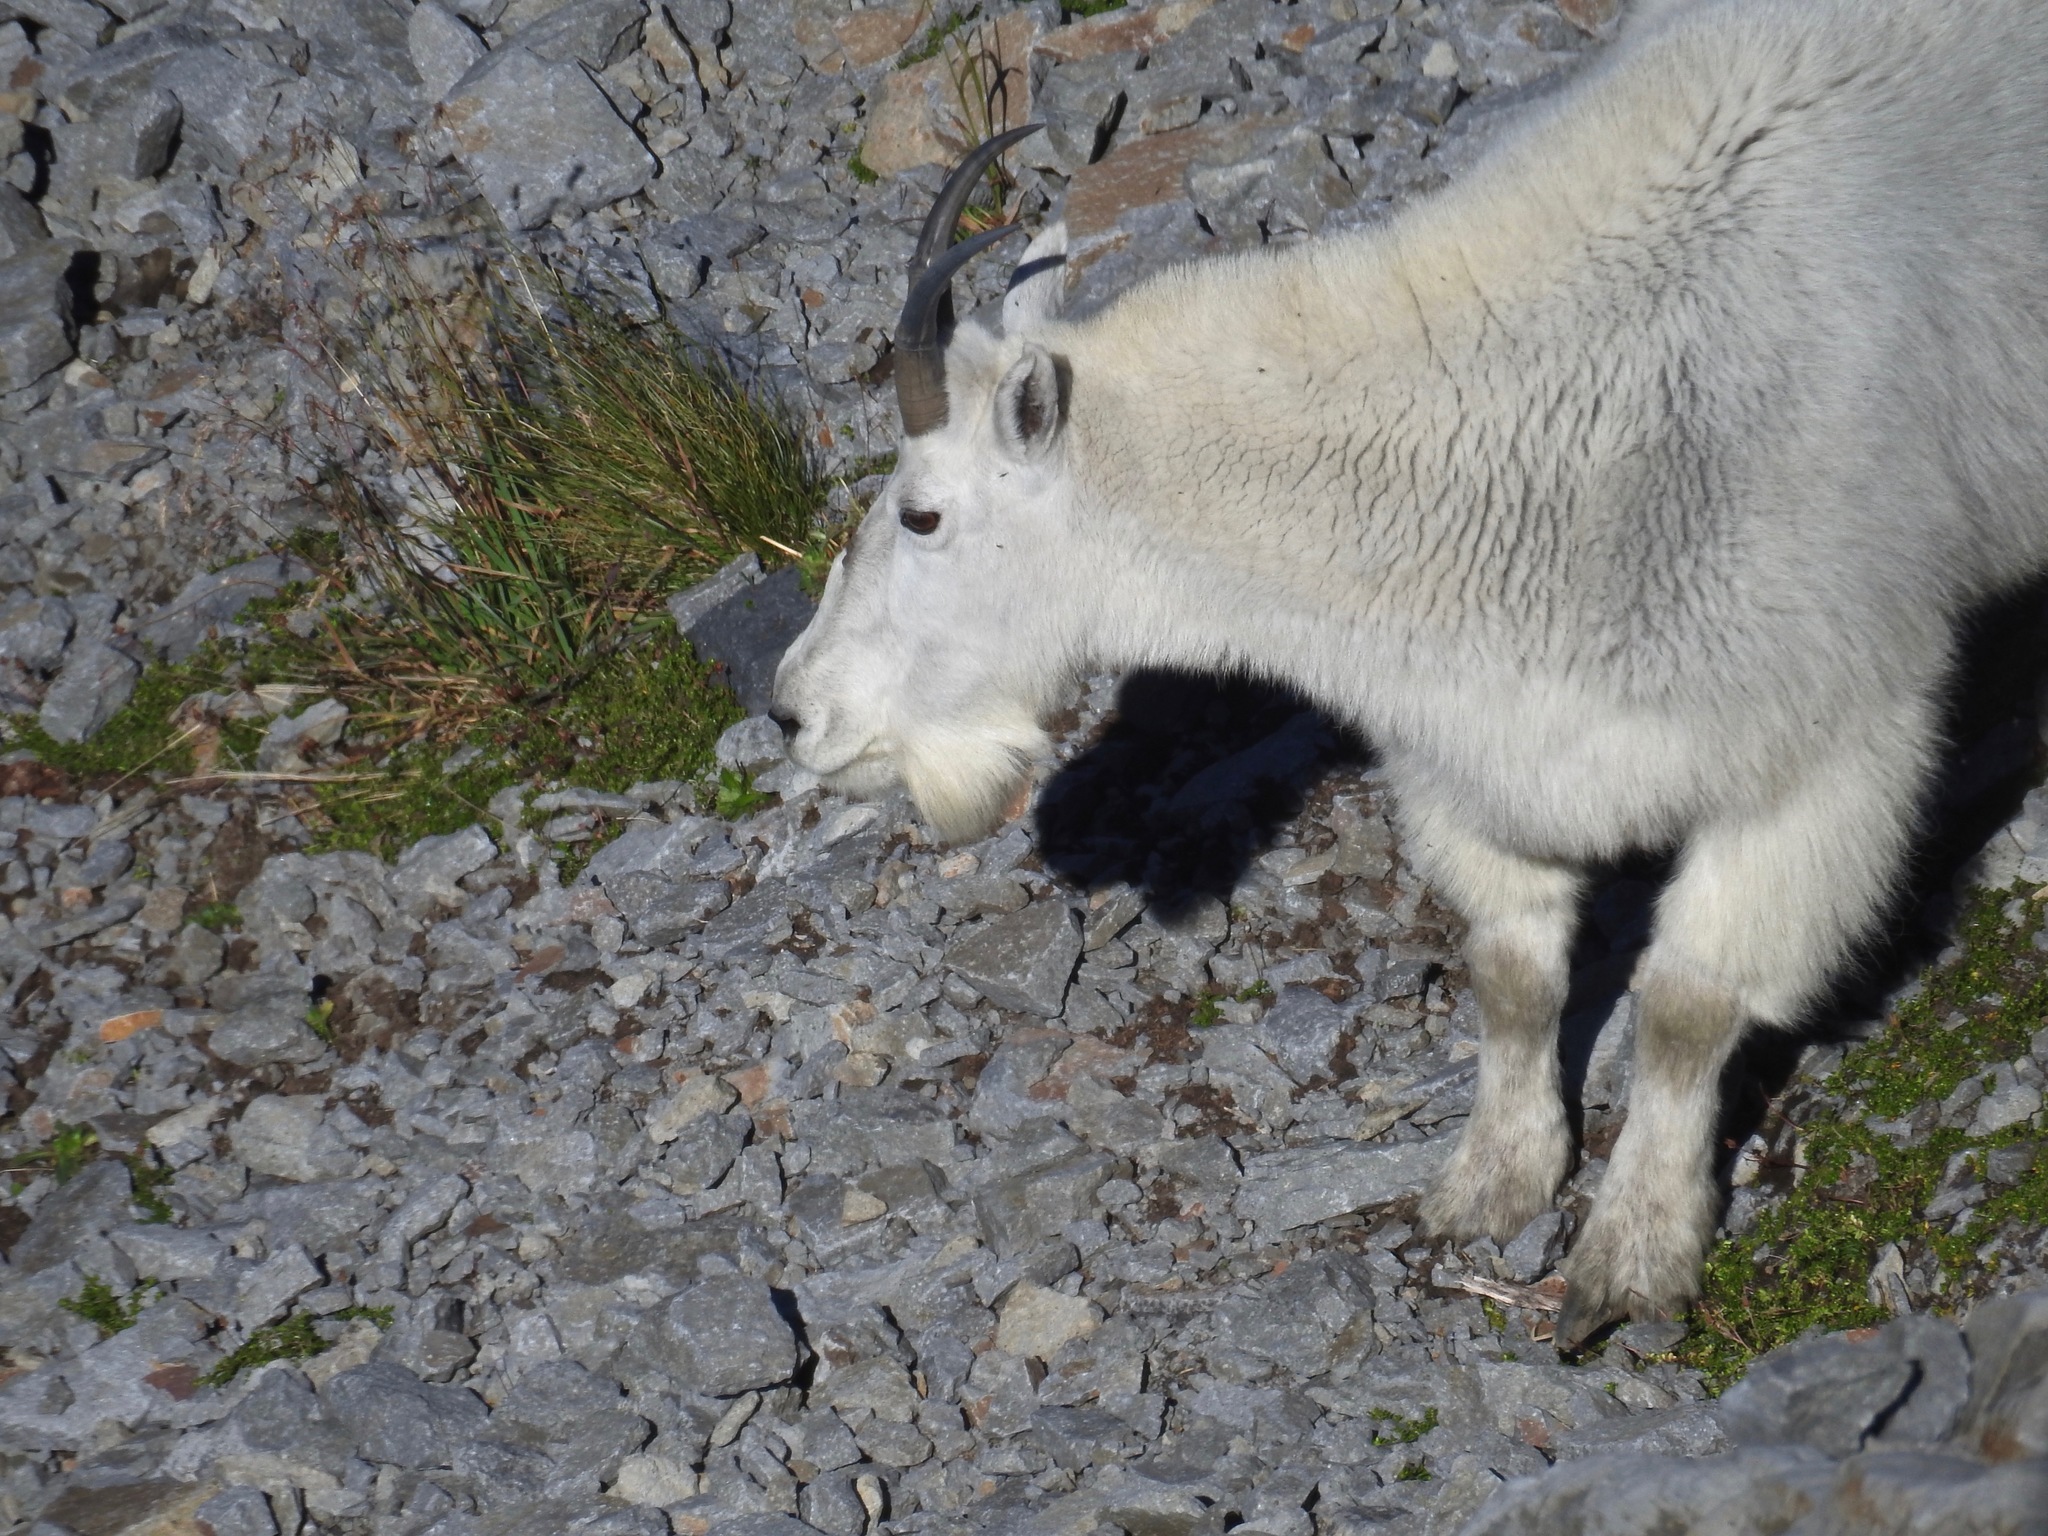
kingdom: Animalia
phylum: Chordata
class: Mammalia
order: Artiodactyla
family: Bovidae
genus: Oreamnos
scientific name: Oreamnos americanus
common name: Mountain goat
